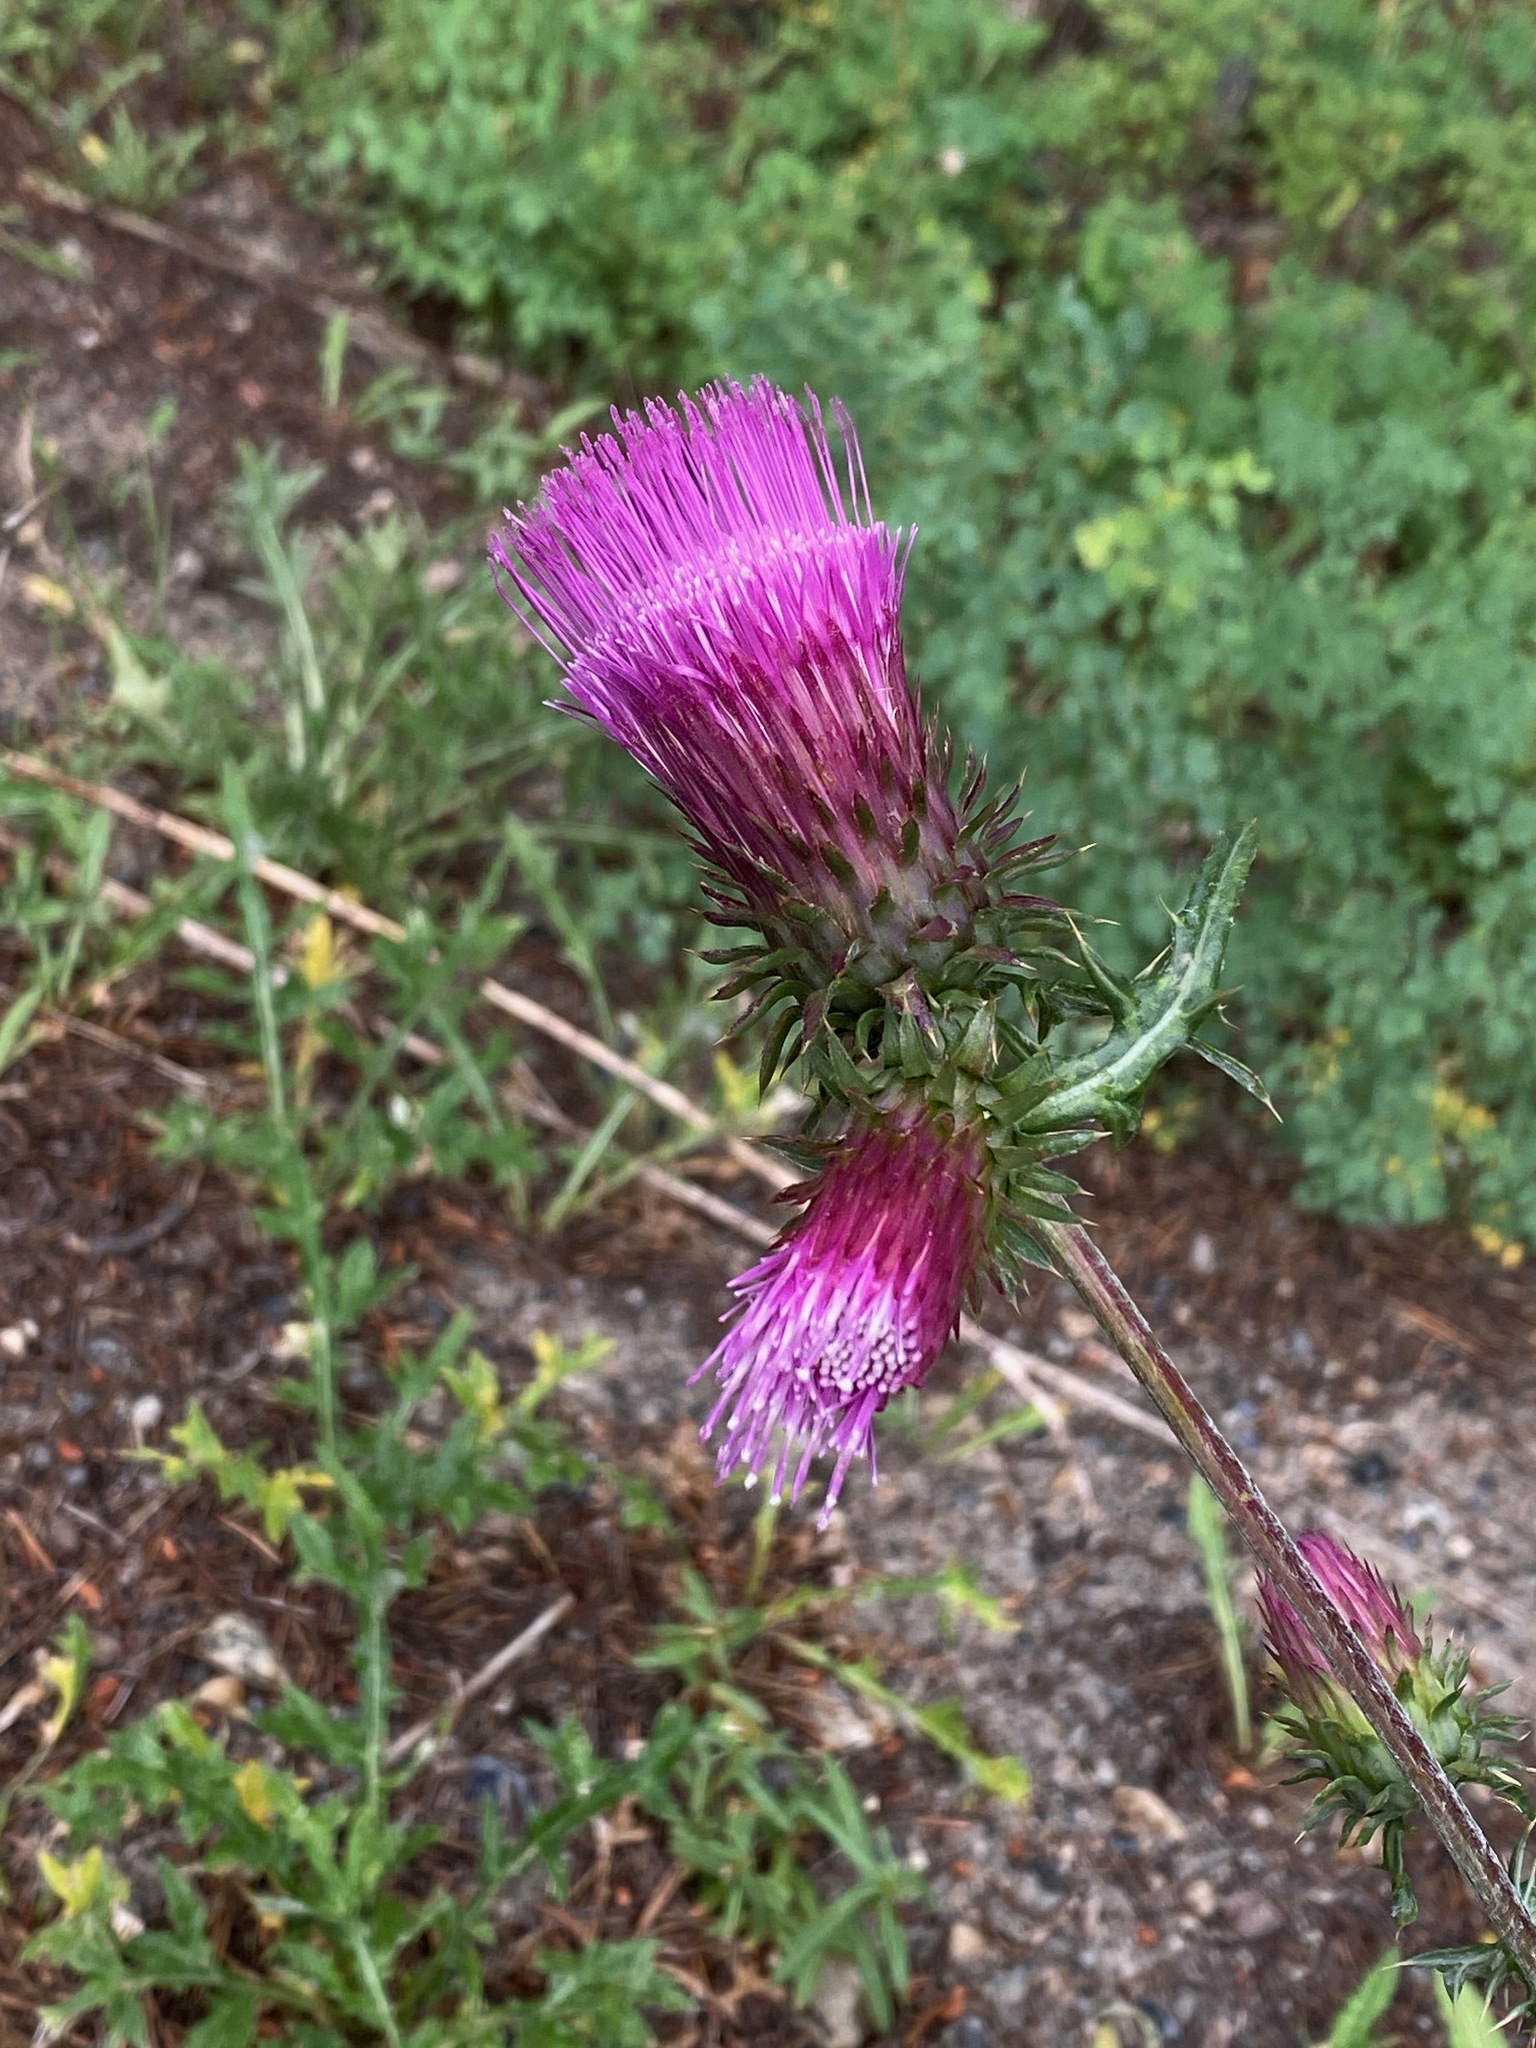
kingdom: Plantae
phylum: Tracheophyta
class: Magnoliopsida
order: Asterales
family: Asteraceae
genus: Cirsium
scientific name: Cirsium andersonii
